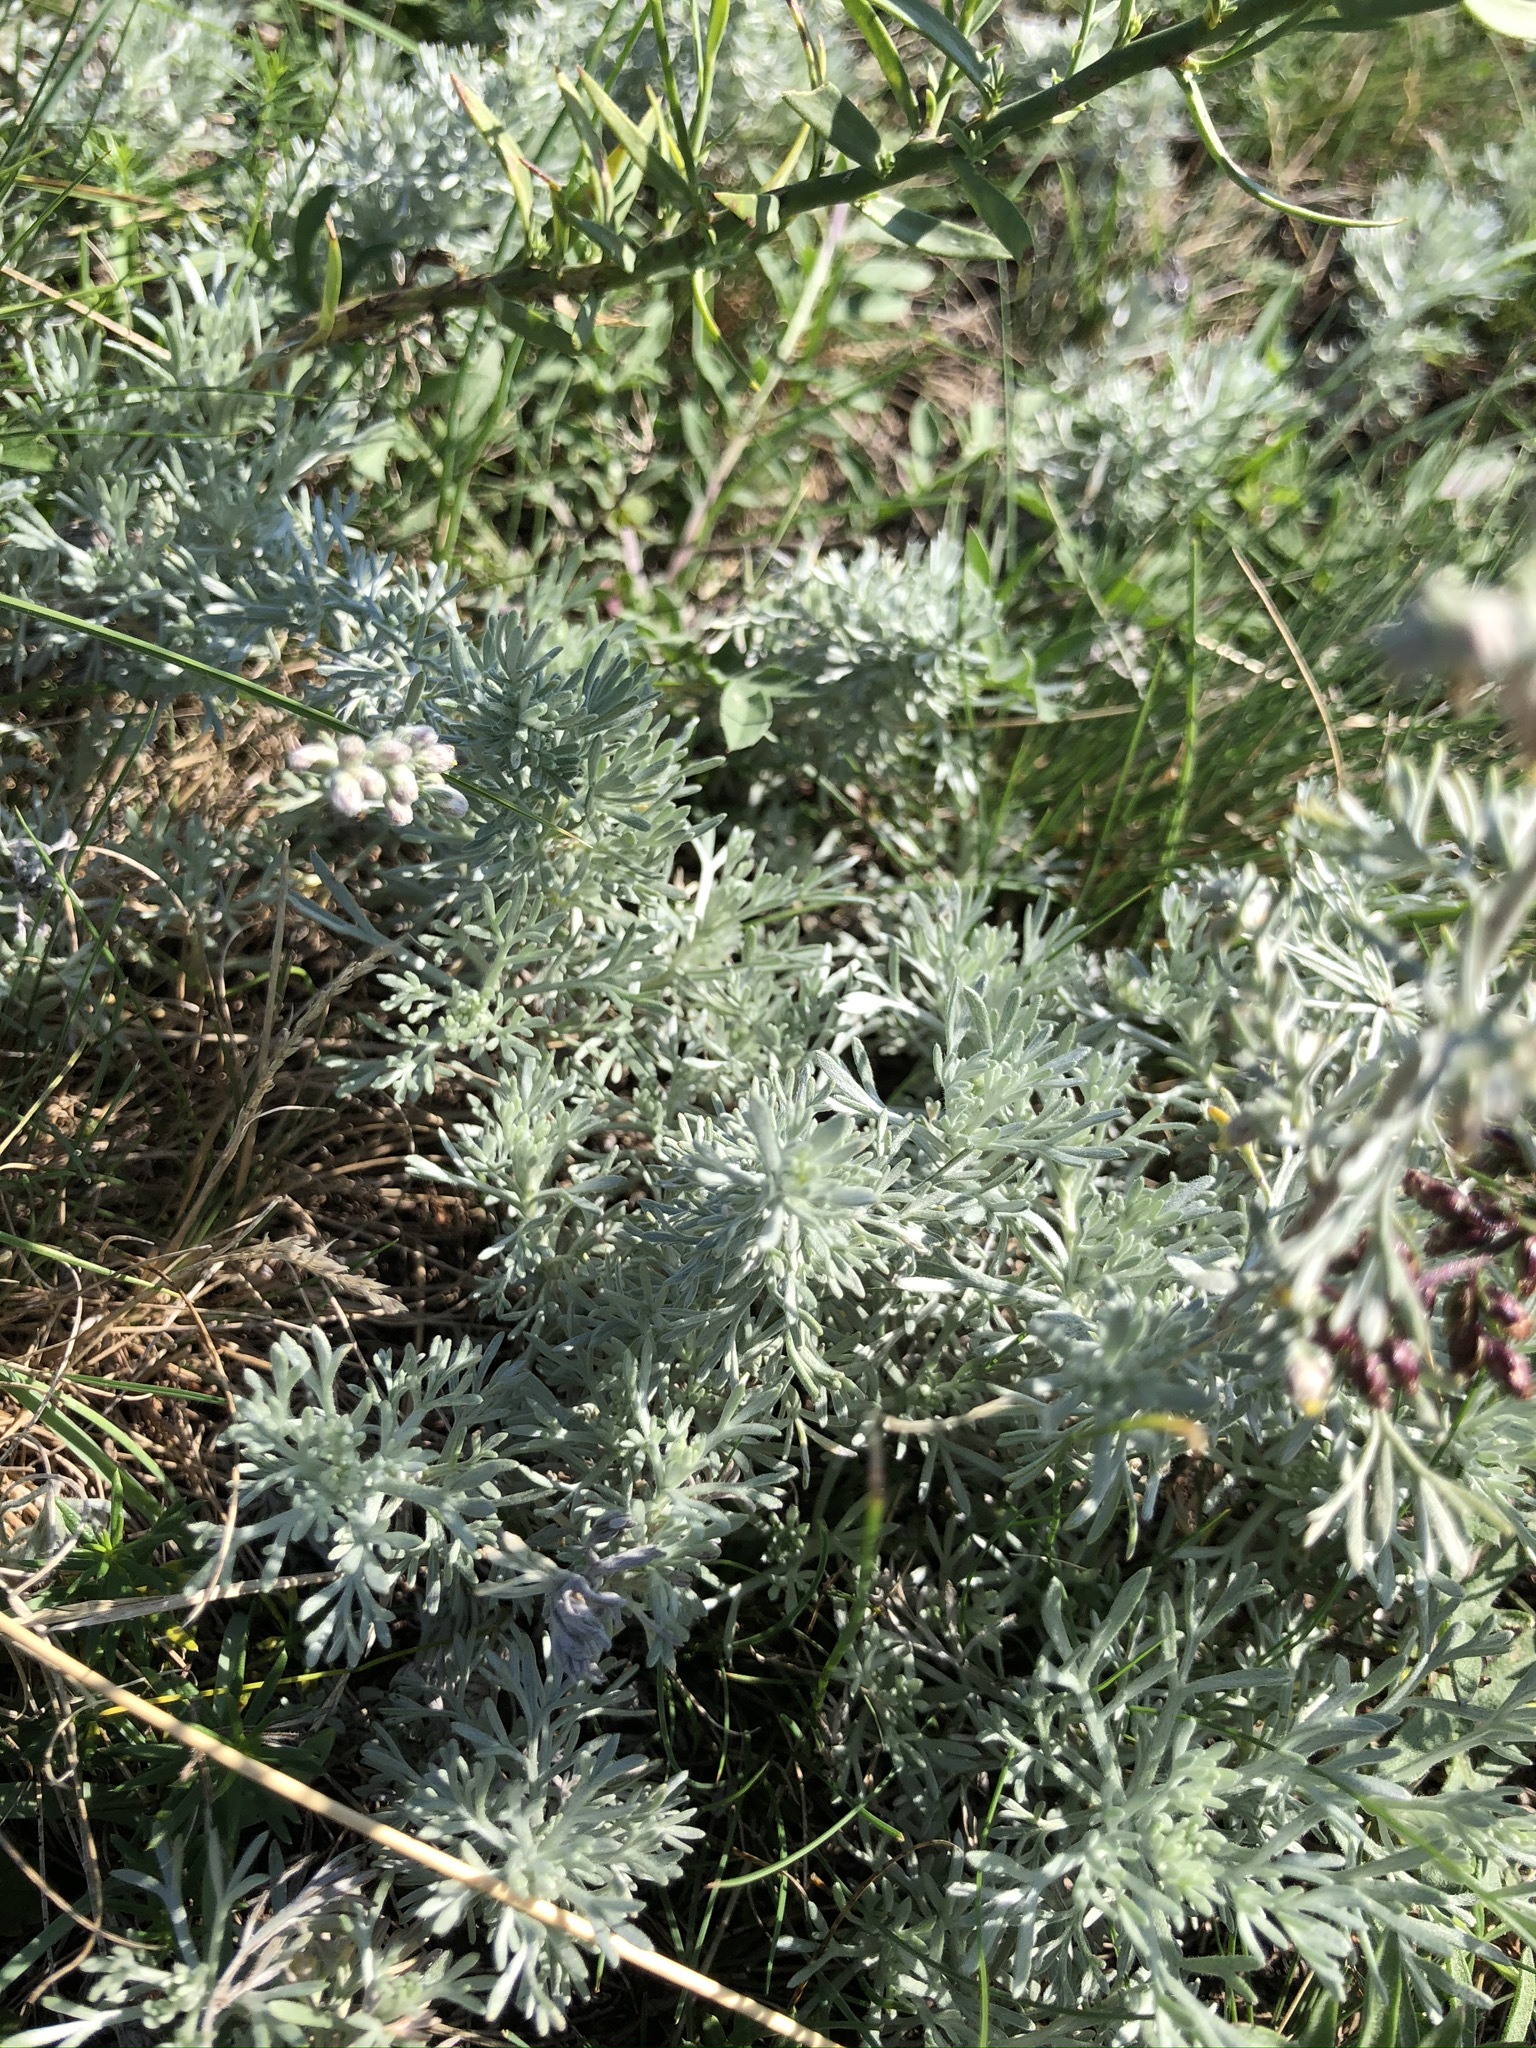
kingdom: Plantae
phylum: Tracheophyta
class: Magnoliopsida
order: Asterales
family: Asteraceae
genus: Artemisia
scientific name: Artemisia austriaca
